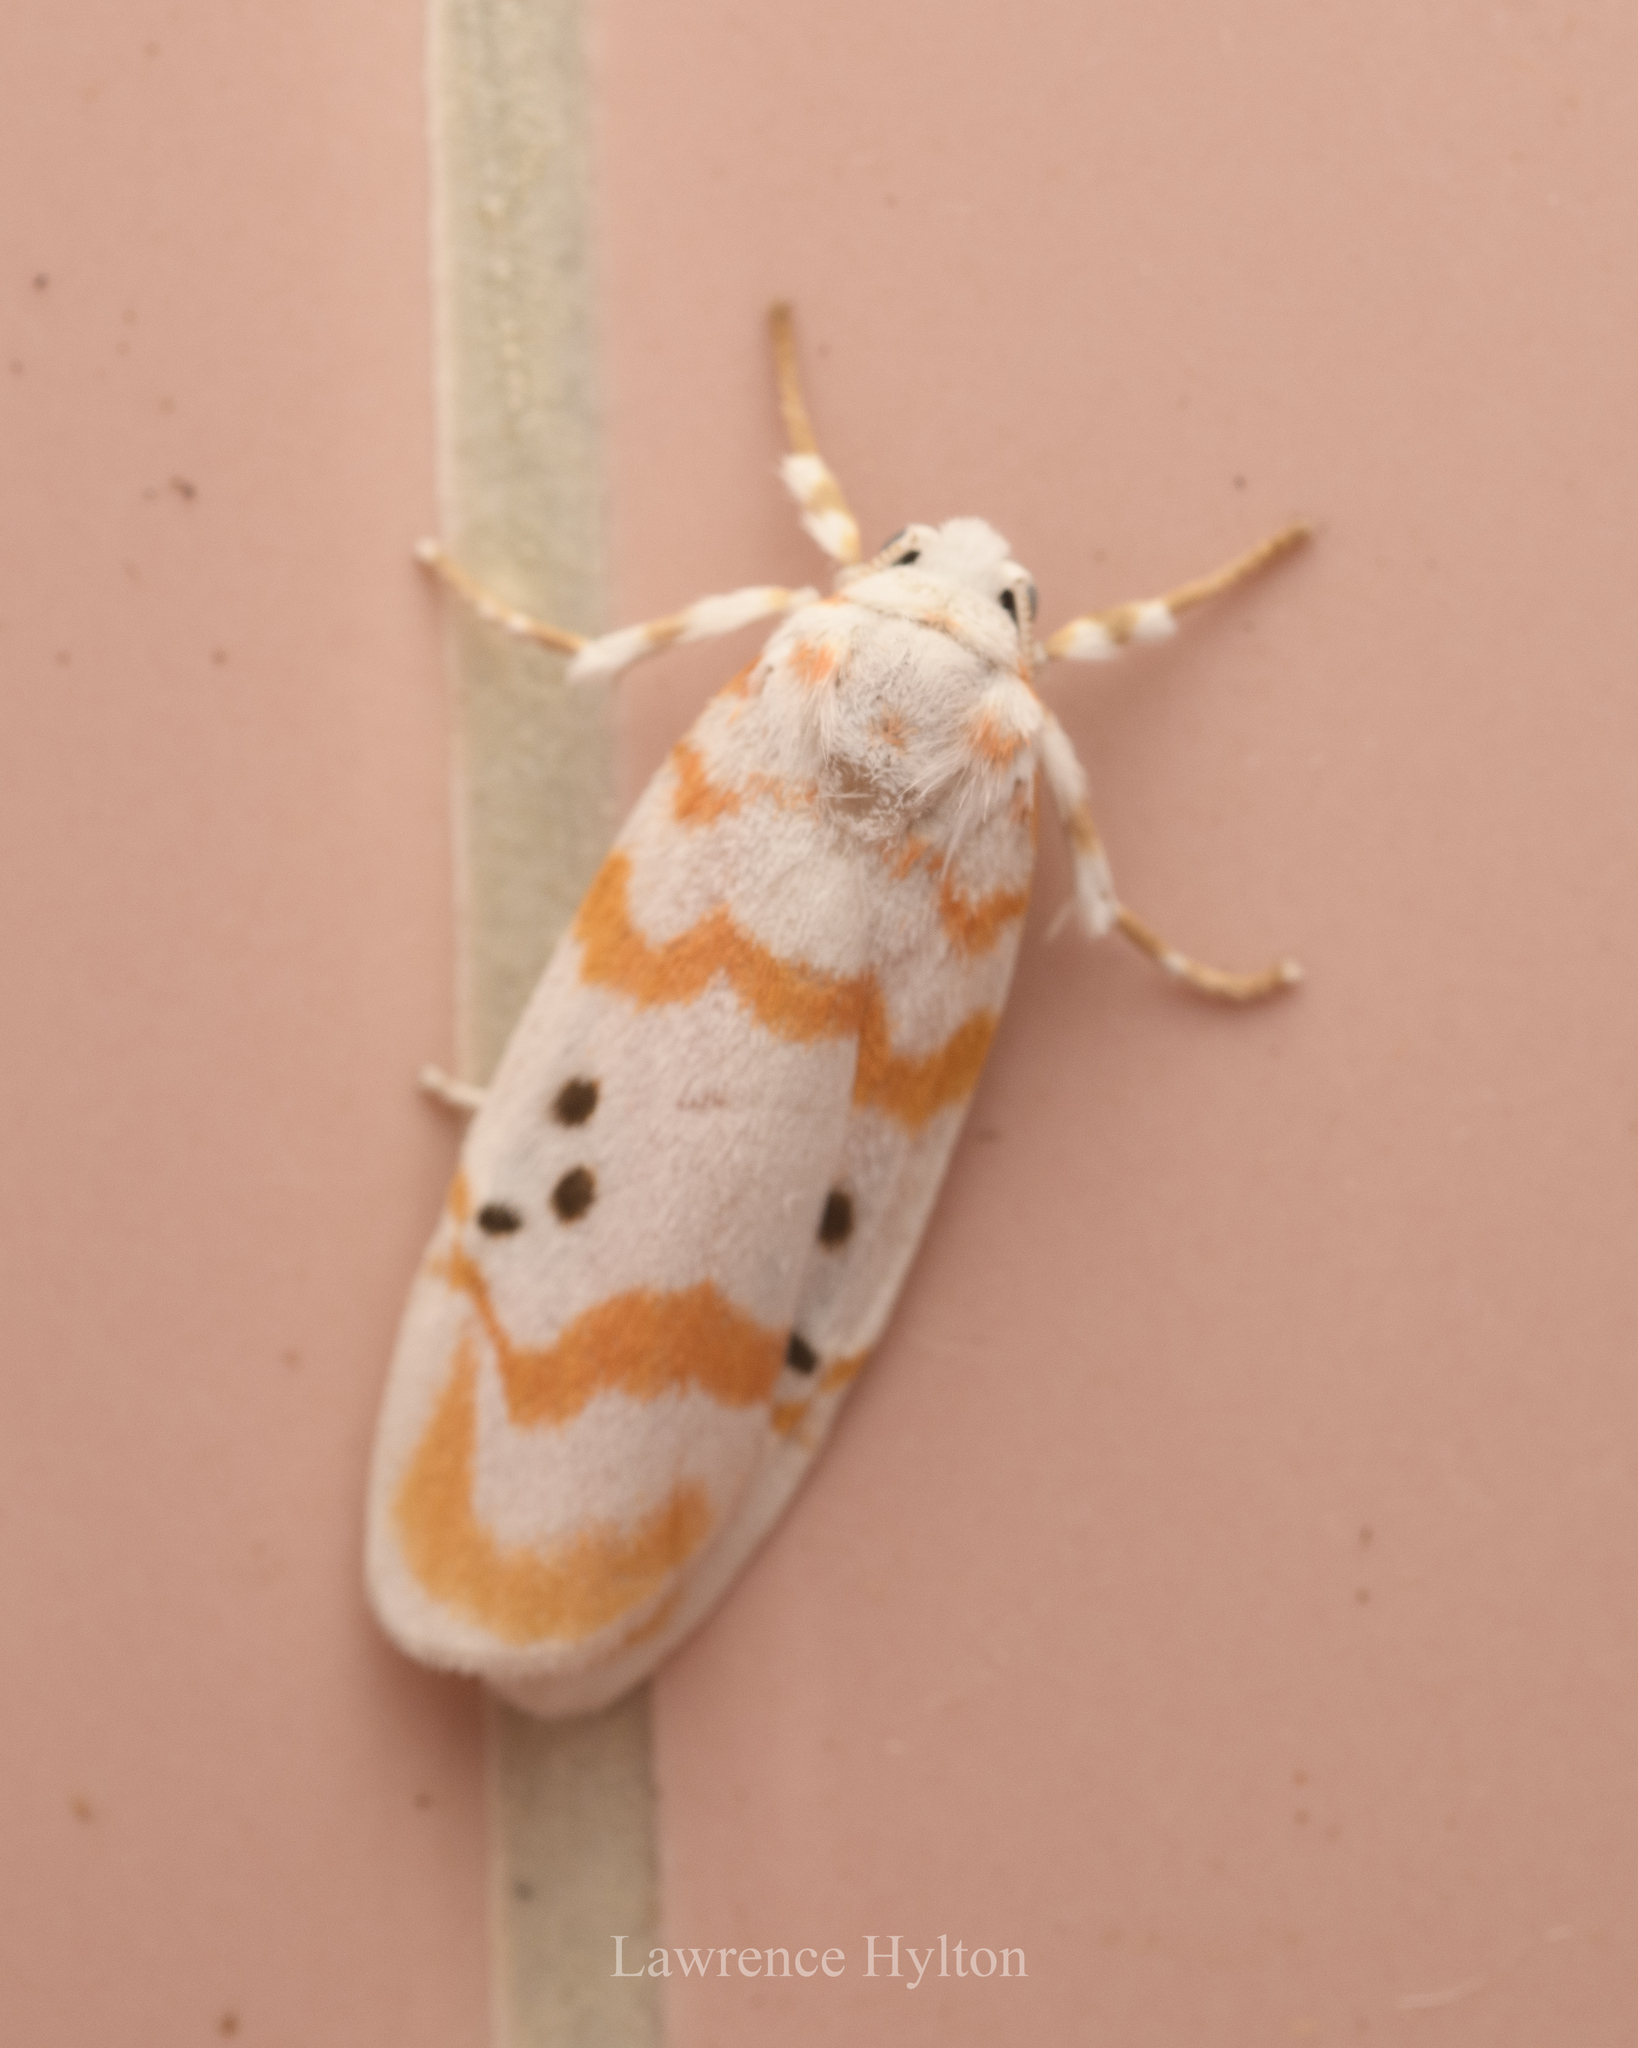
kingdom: Animalia
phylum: Arthropoda
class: Insecta
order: Lepidoptera
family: Erebidae
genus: Cyana
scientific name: Cyana interrogationis
